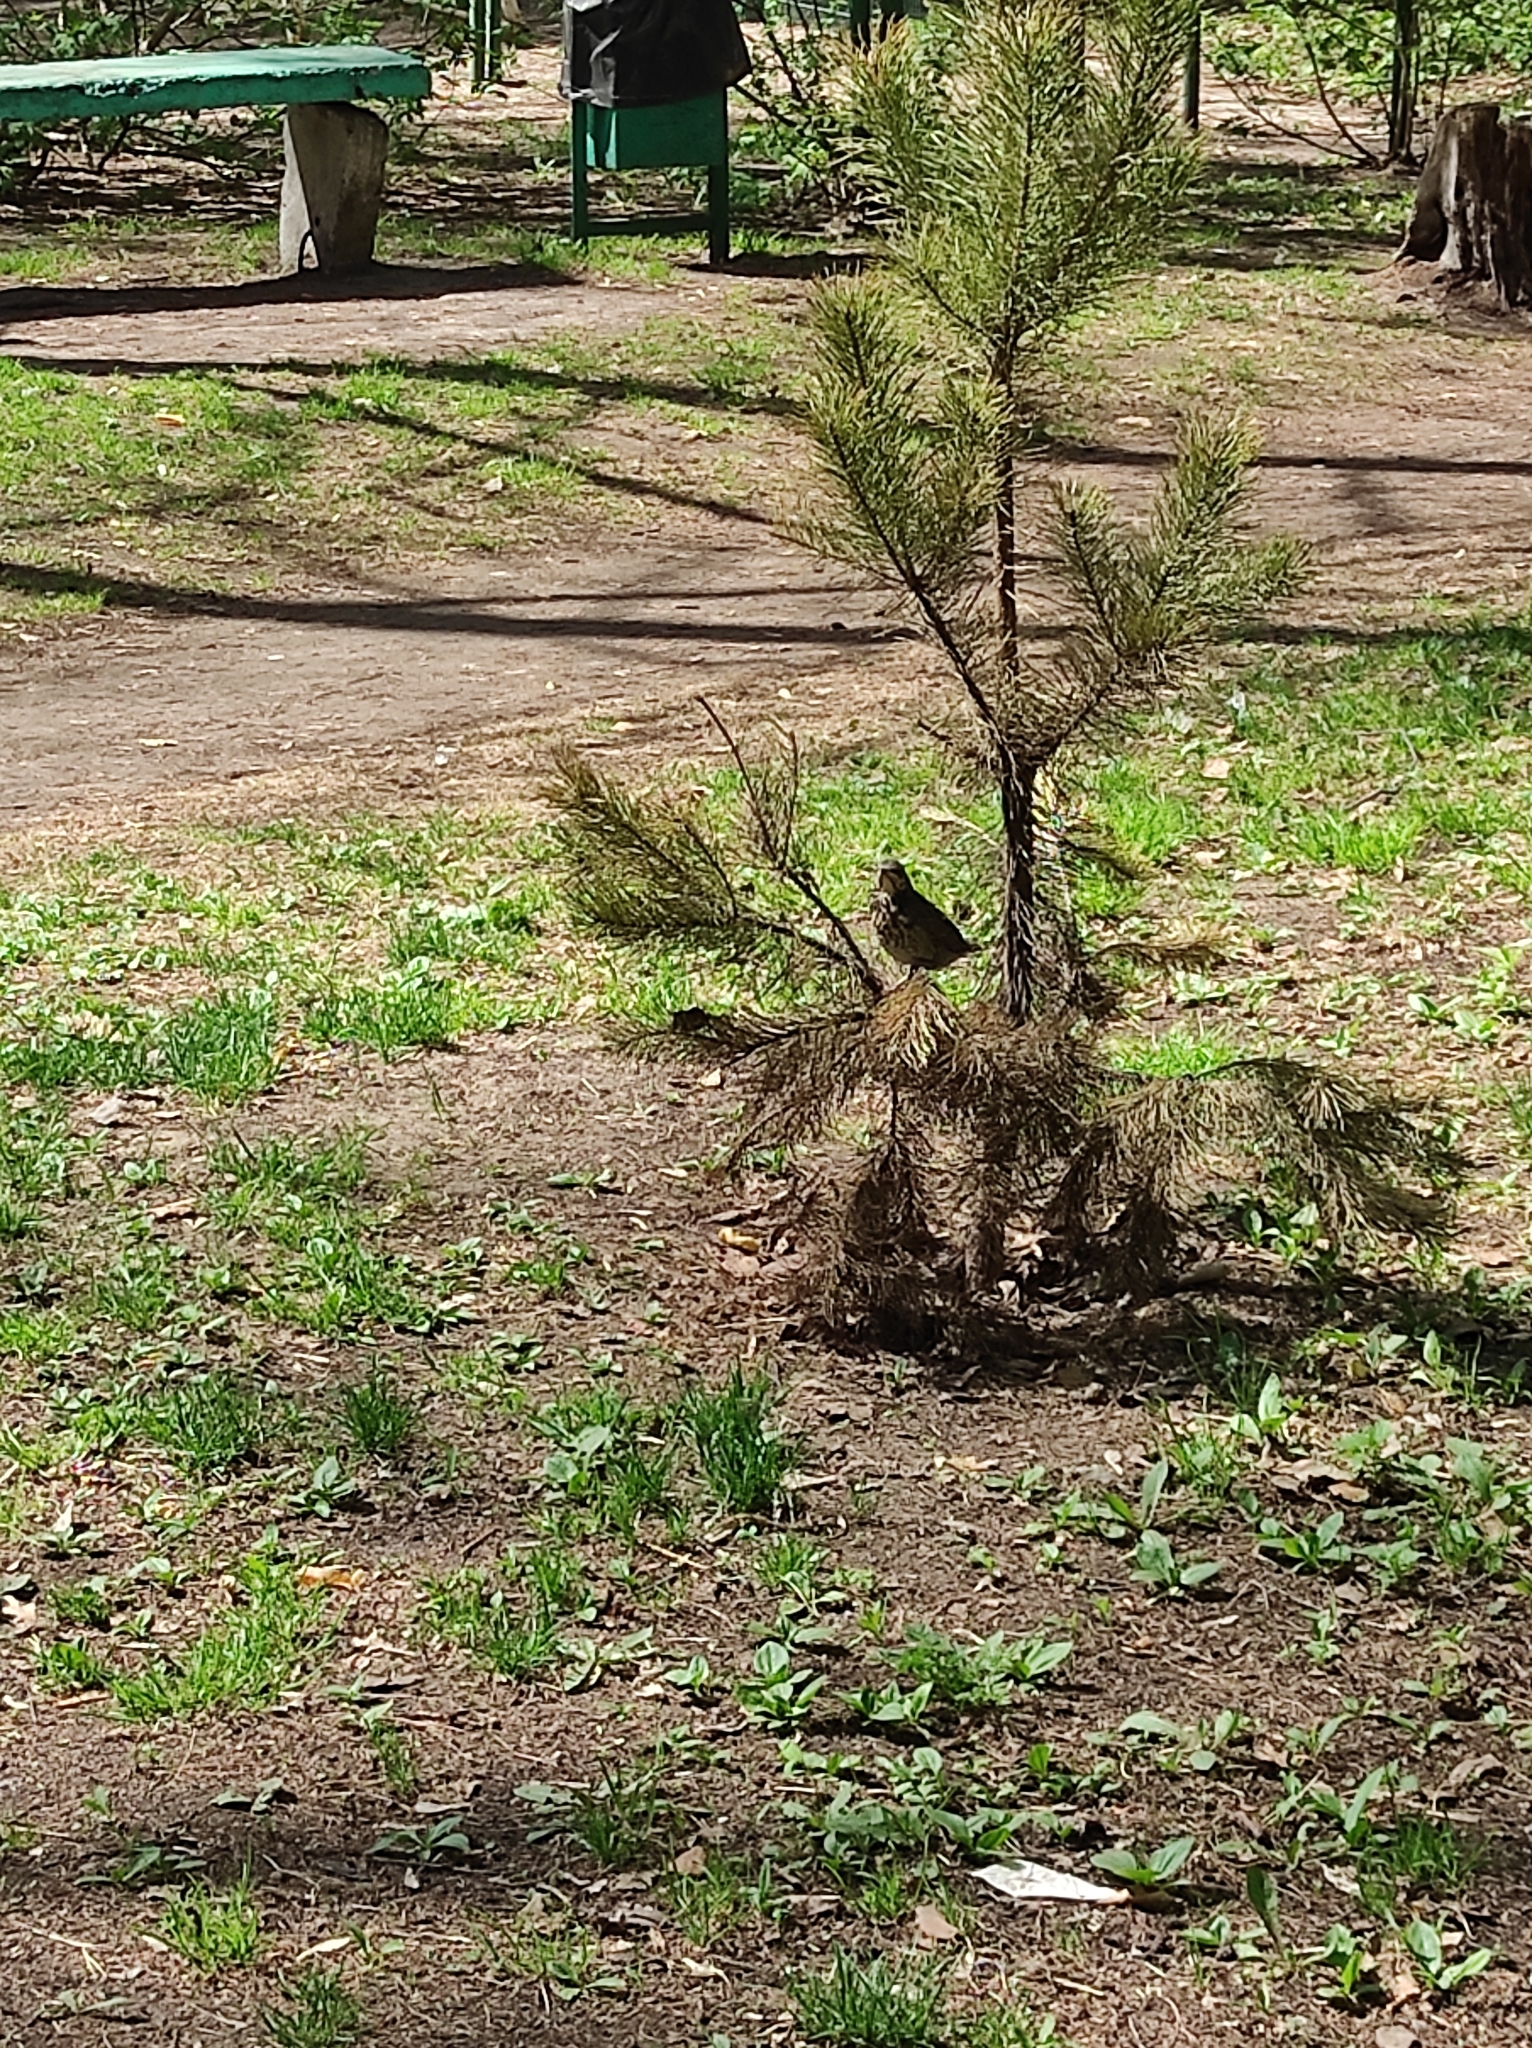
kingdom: Animalia
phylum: Chordata
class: Aves
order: Passeriformes
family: Turdidae
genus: Turdus
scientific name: Turdus pilaris
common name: Fieldfare
